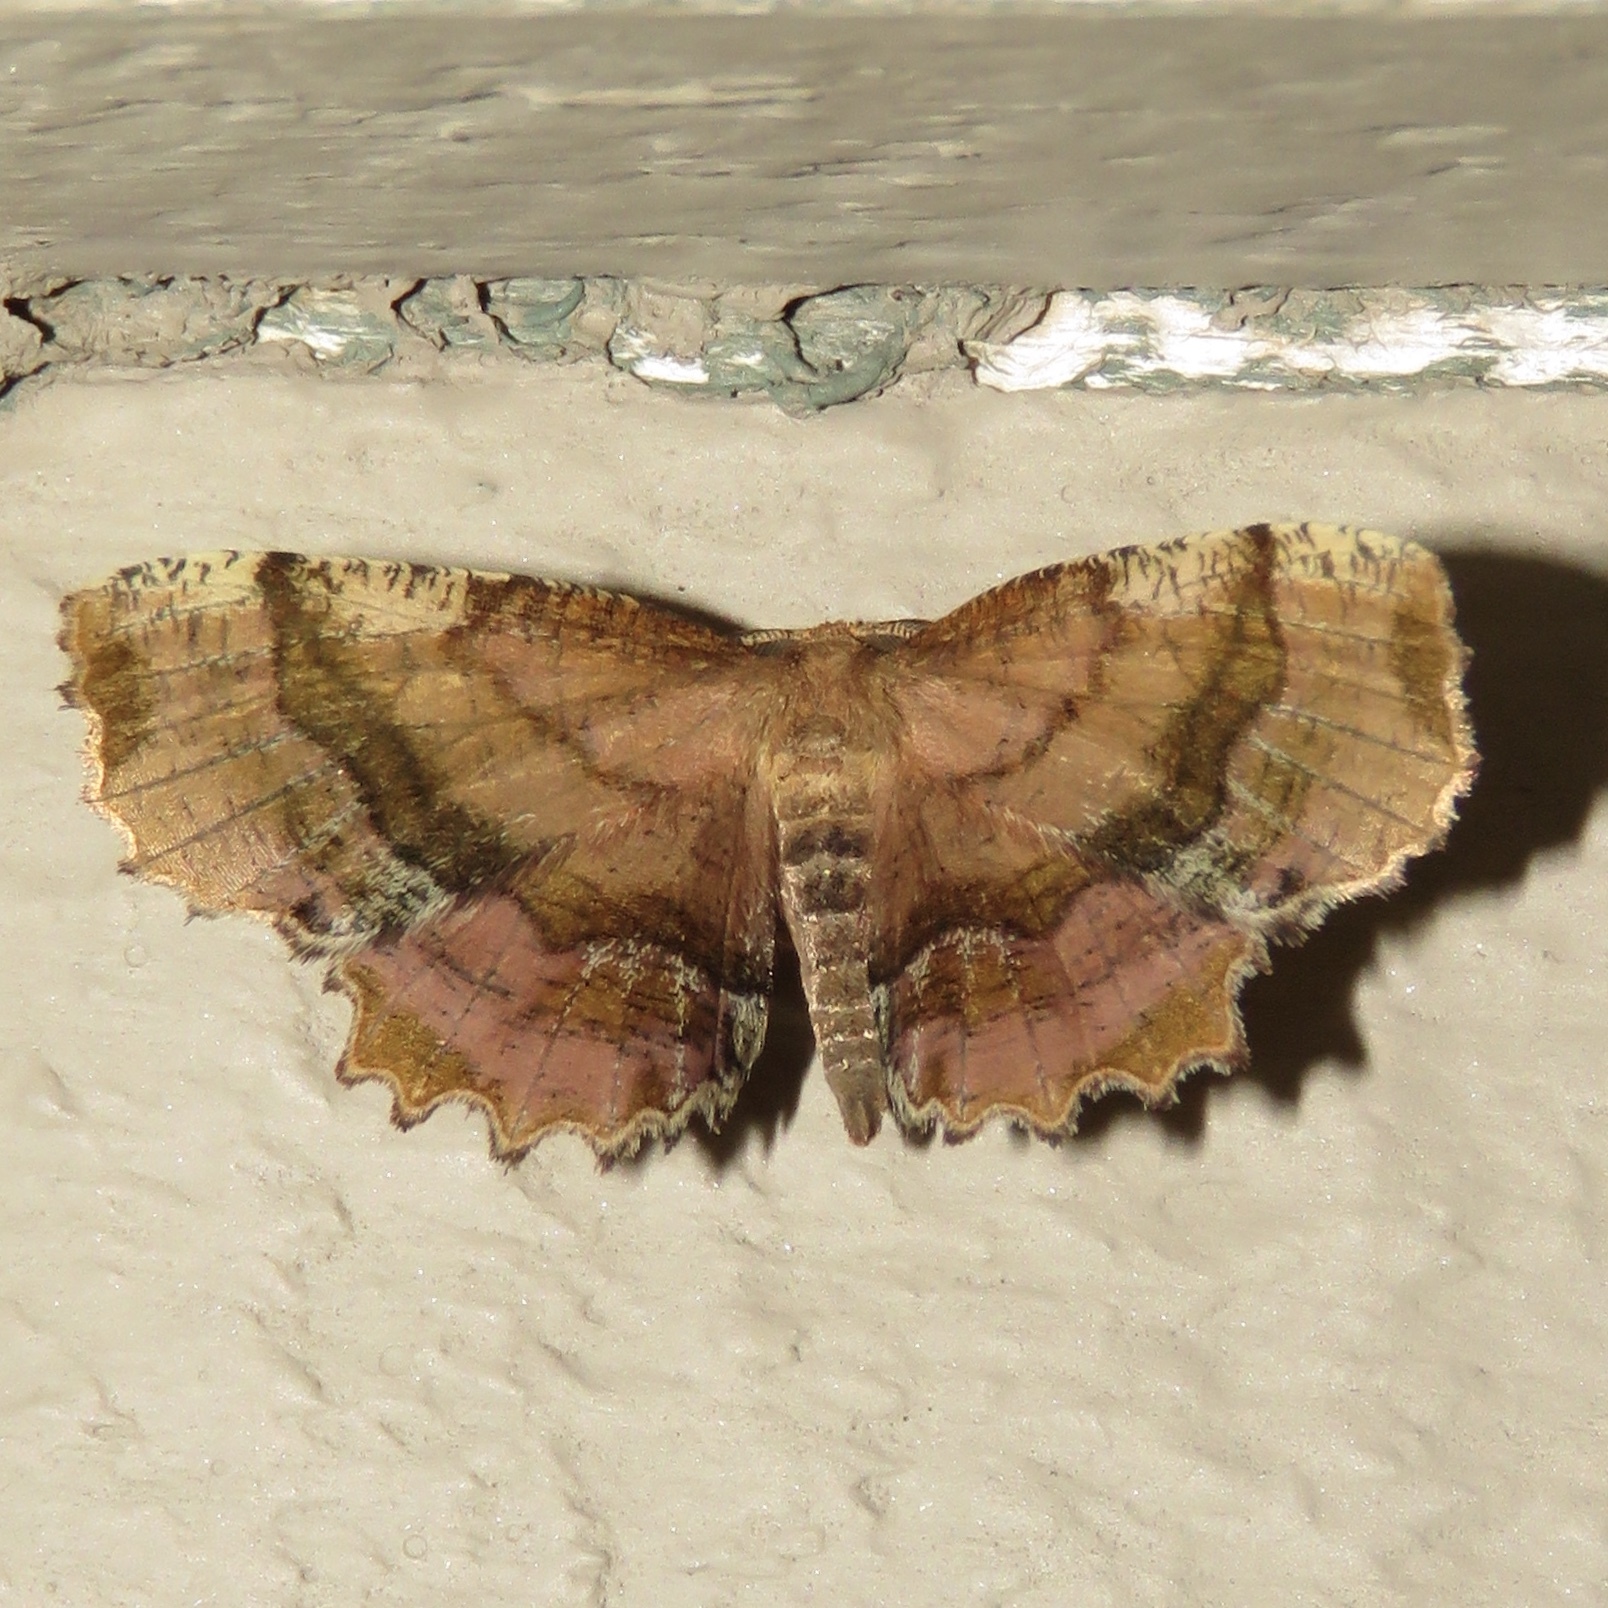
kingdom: Animalia
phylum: Arthropoda
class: Insecta
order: Lepidoptera
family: Geometridae
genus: Cepphis
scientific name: Cepphis armataria
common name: Scallop moth
